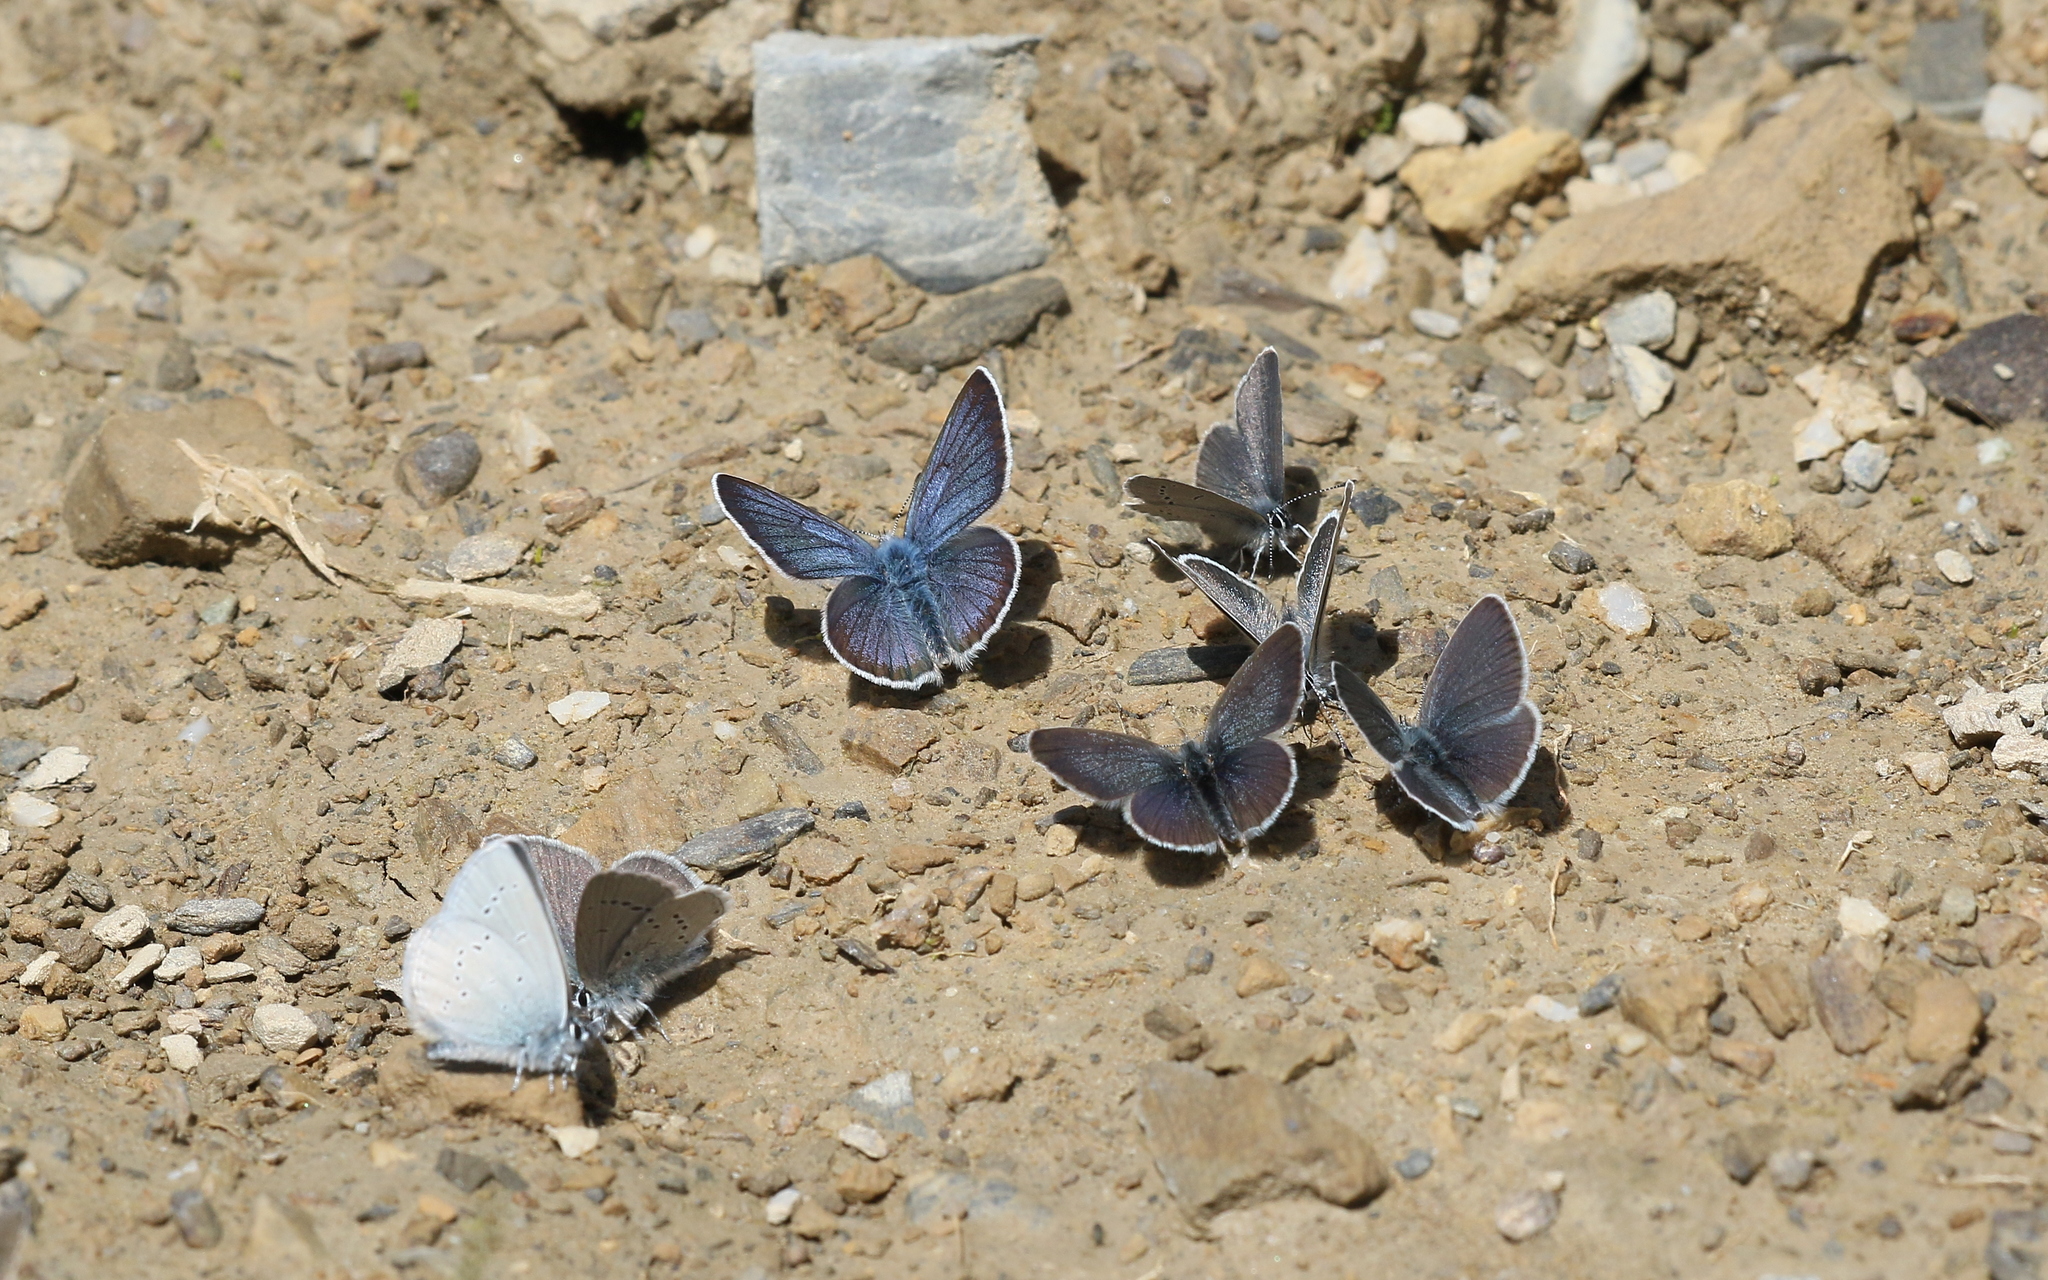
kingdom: Animalia
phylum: Arthropoda
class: Insecta
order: Lepidoptera
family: Lycaenidae
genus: Cyaniris
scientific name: Cyaniris semiargus
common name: Mazarine blue
